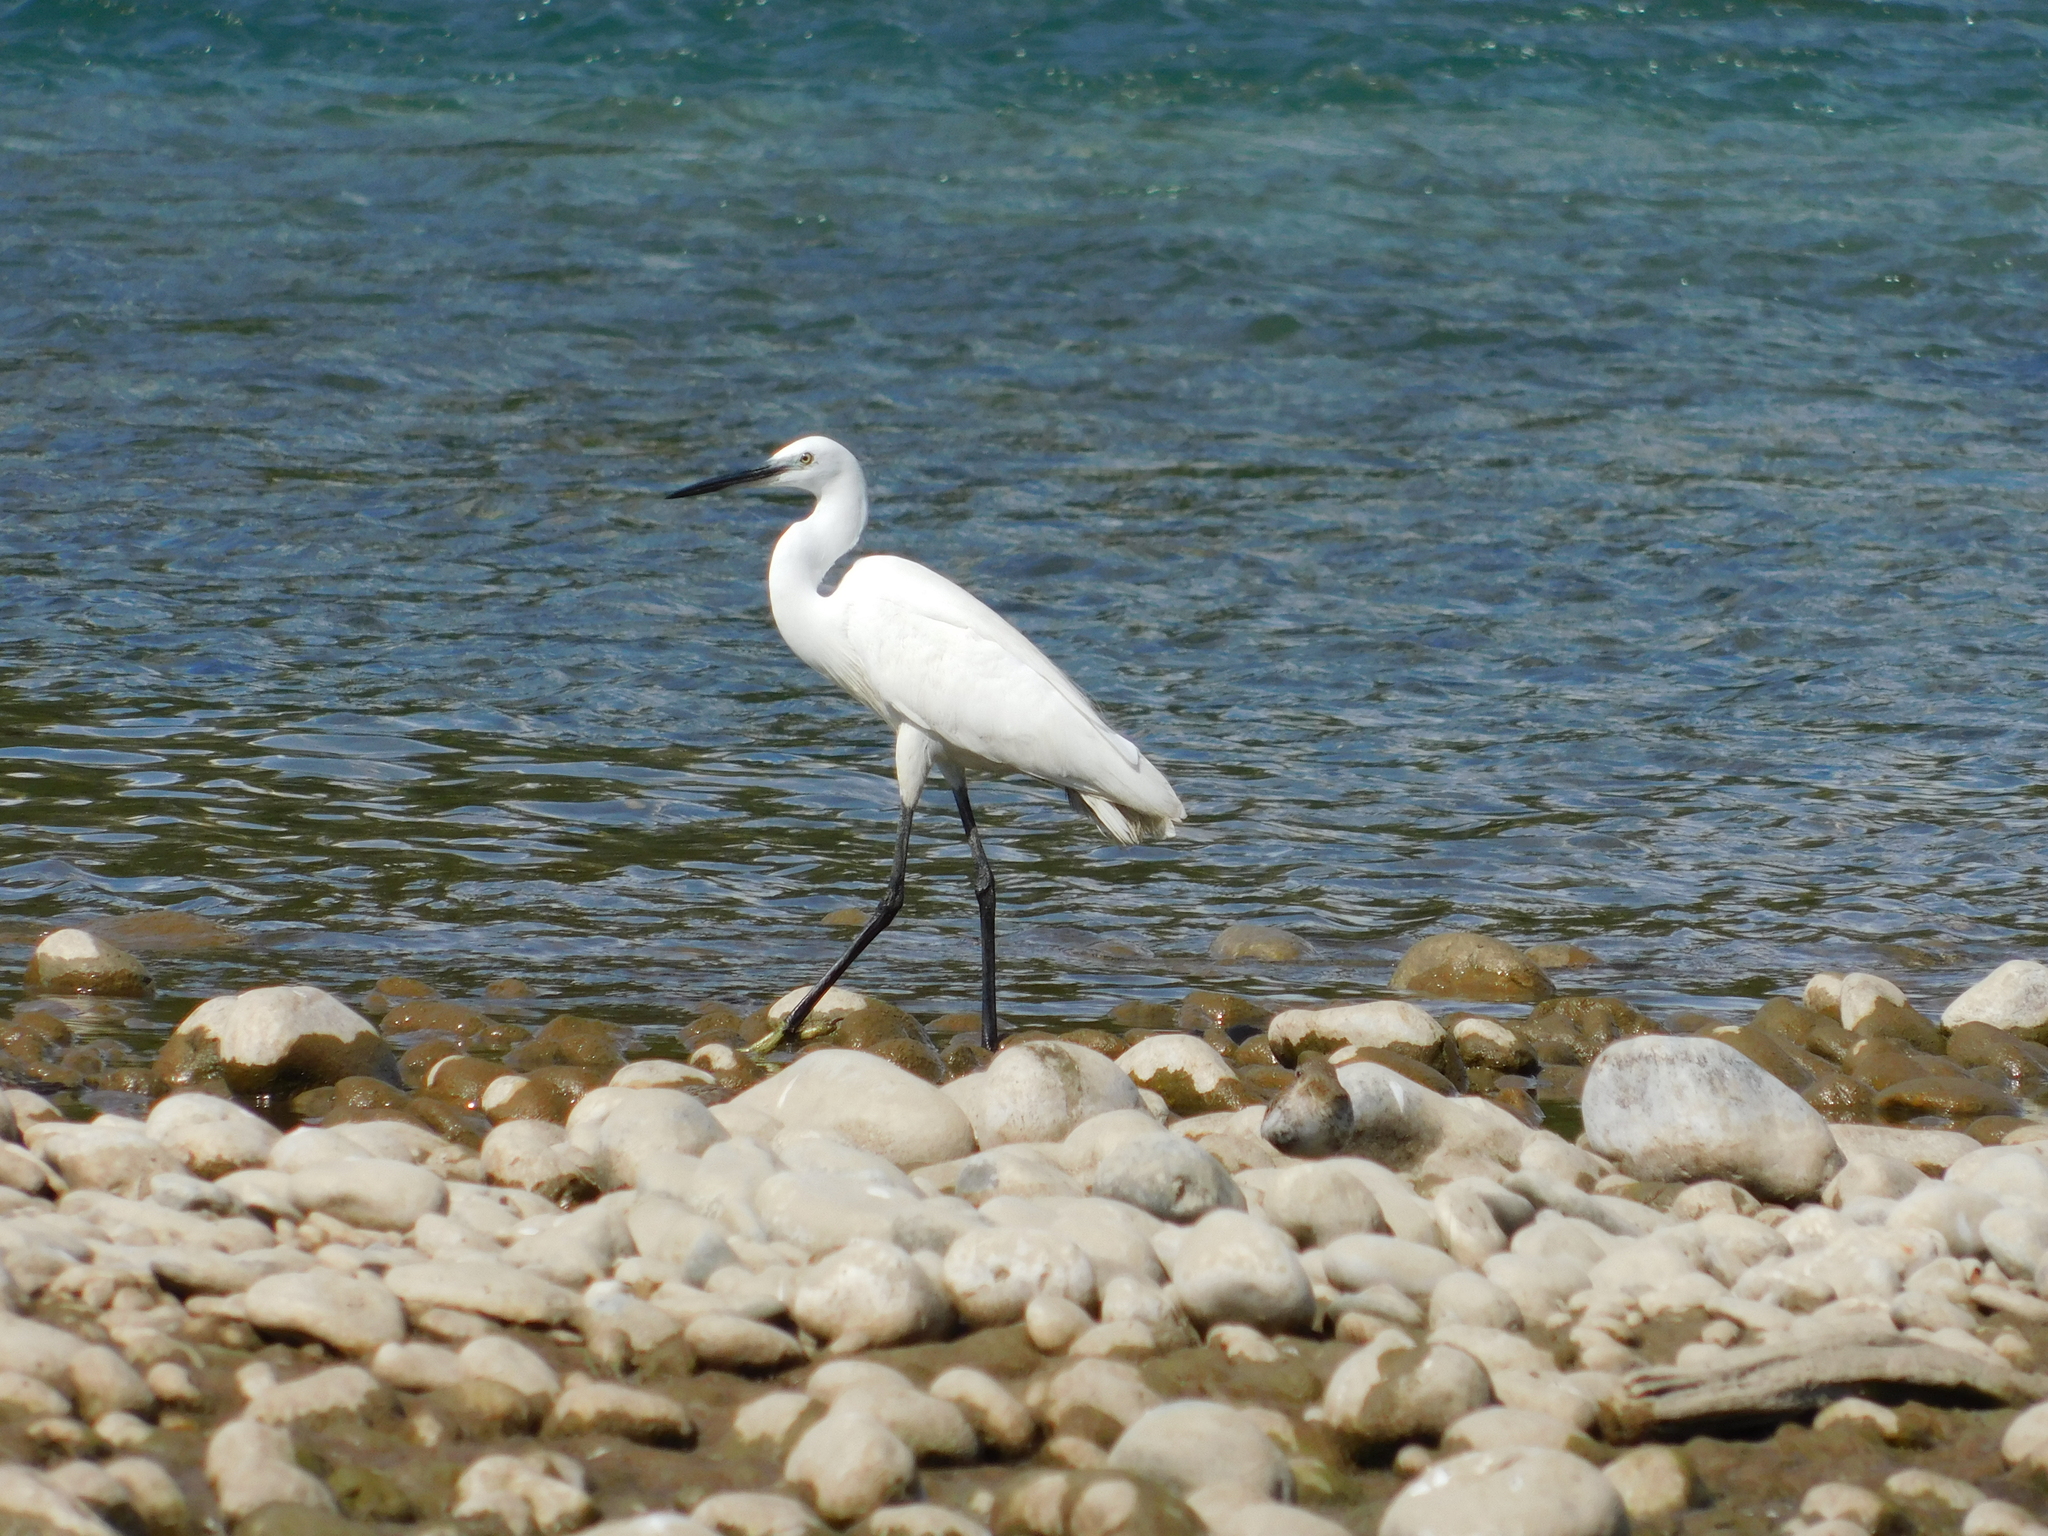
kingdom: Animalia
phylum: Chordata
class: Aves
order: Pelecaniformes
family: Ardeidae
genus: Egretta
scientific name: Egretta garzetta
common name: Little egret
